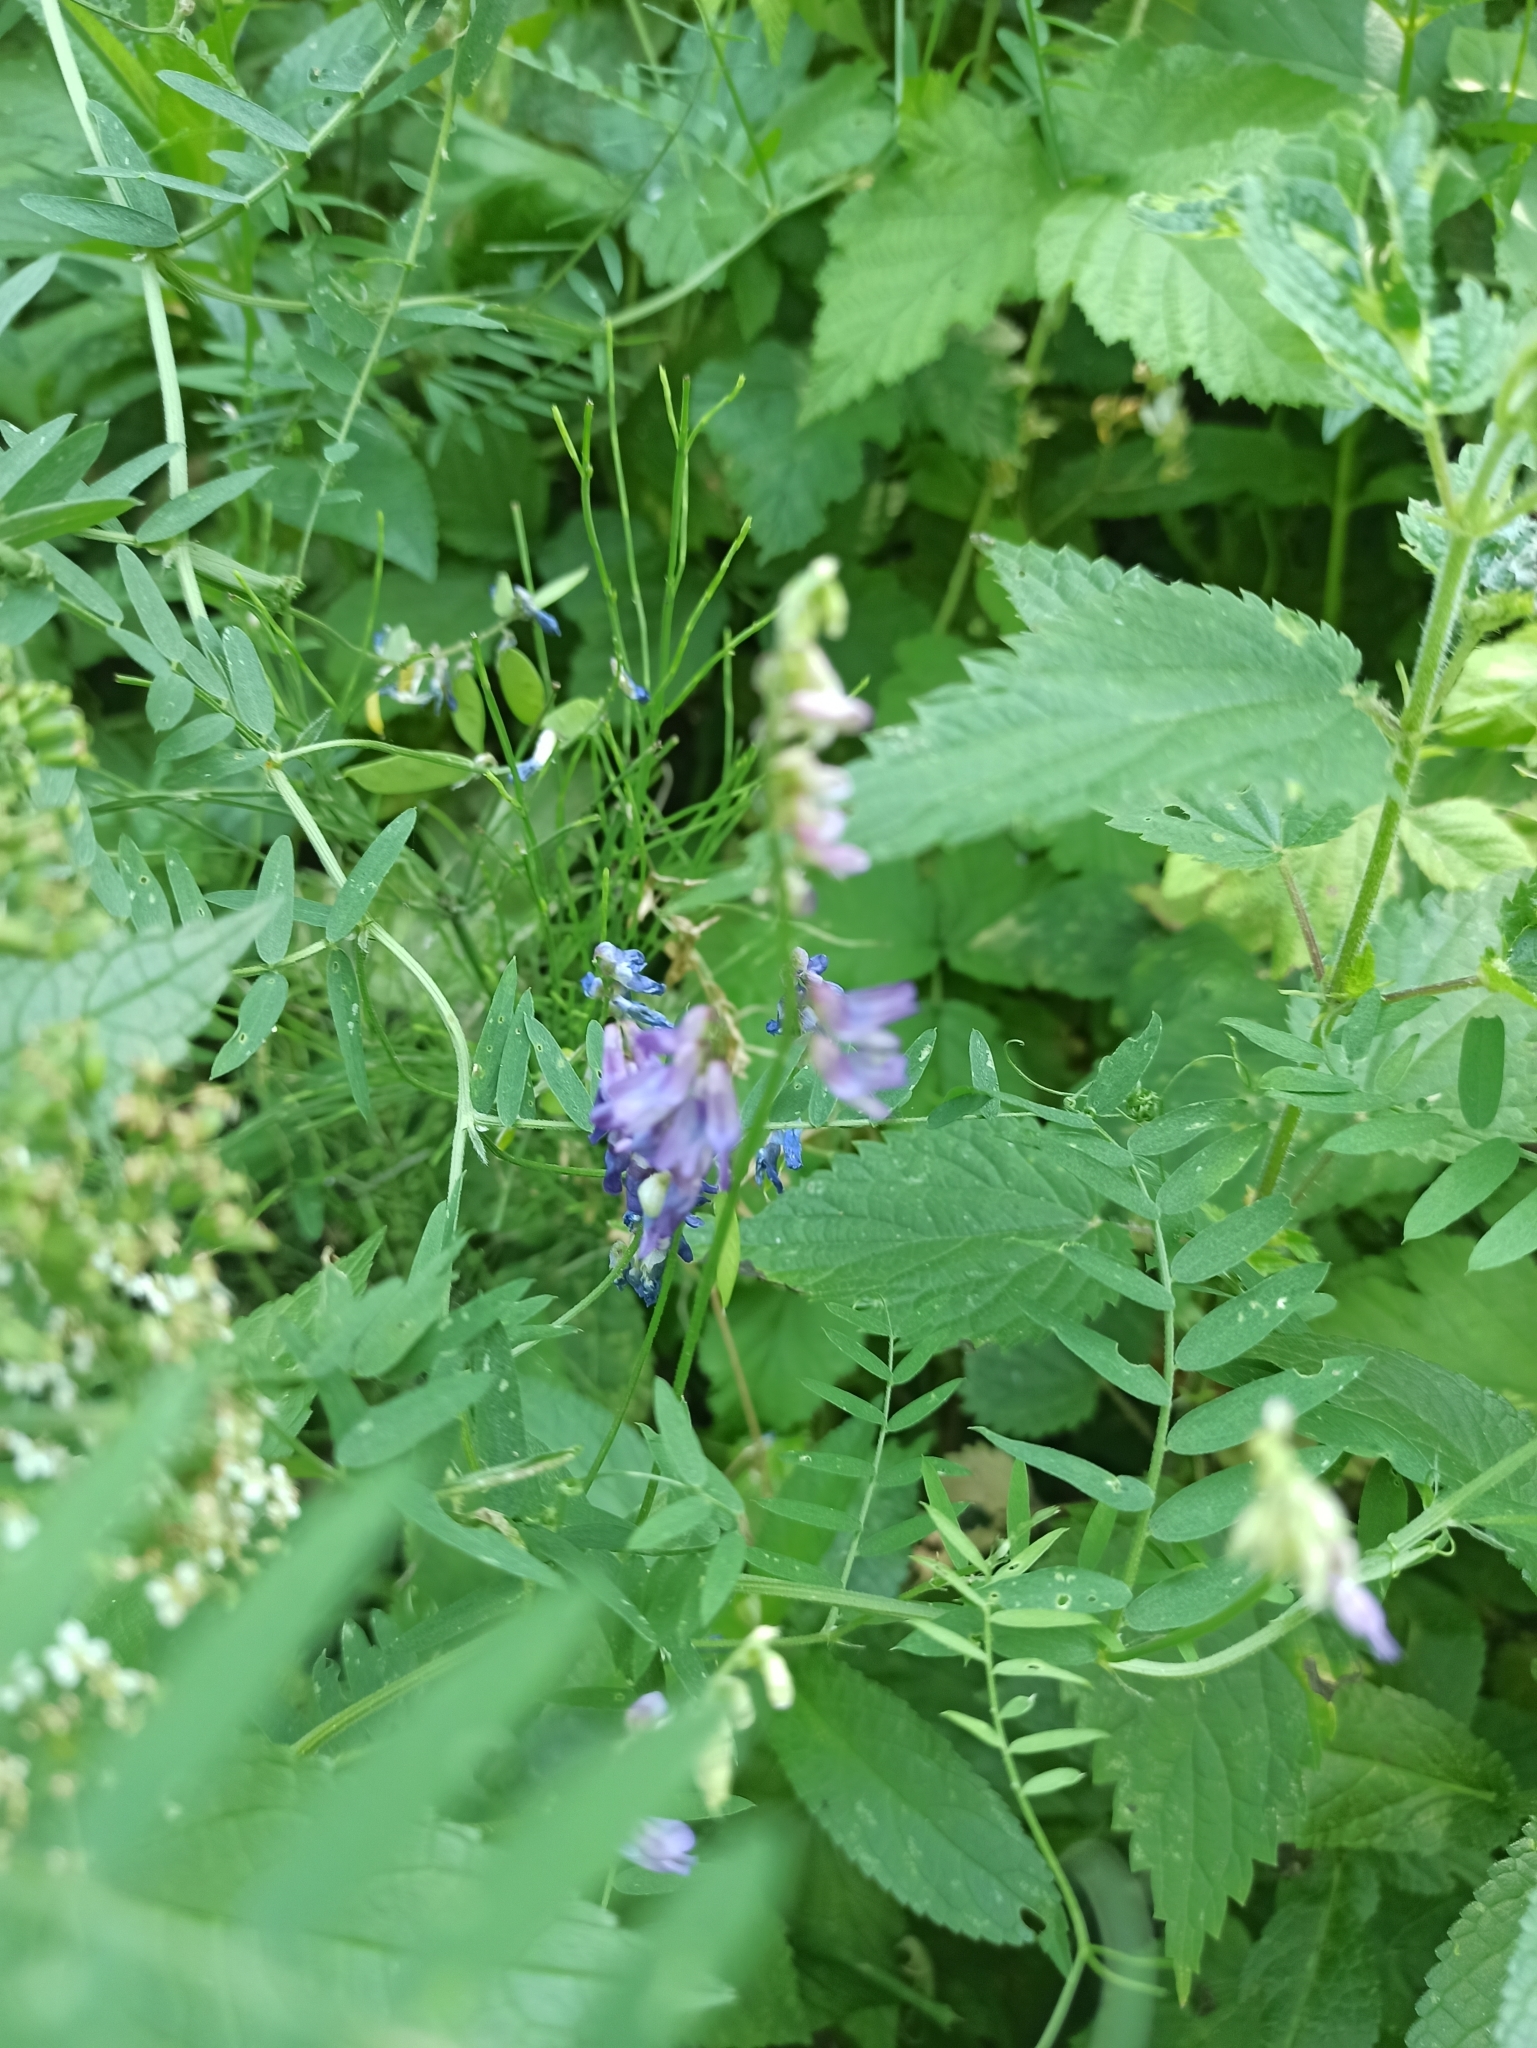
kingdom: Plantae
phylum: Tracheophyta
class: Magnoliopsida
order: Fabales
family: Fabaceae
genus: Vicia
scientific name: Vicia cracca
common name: Bird vetch
